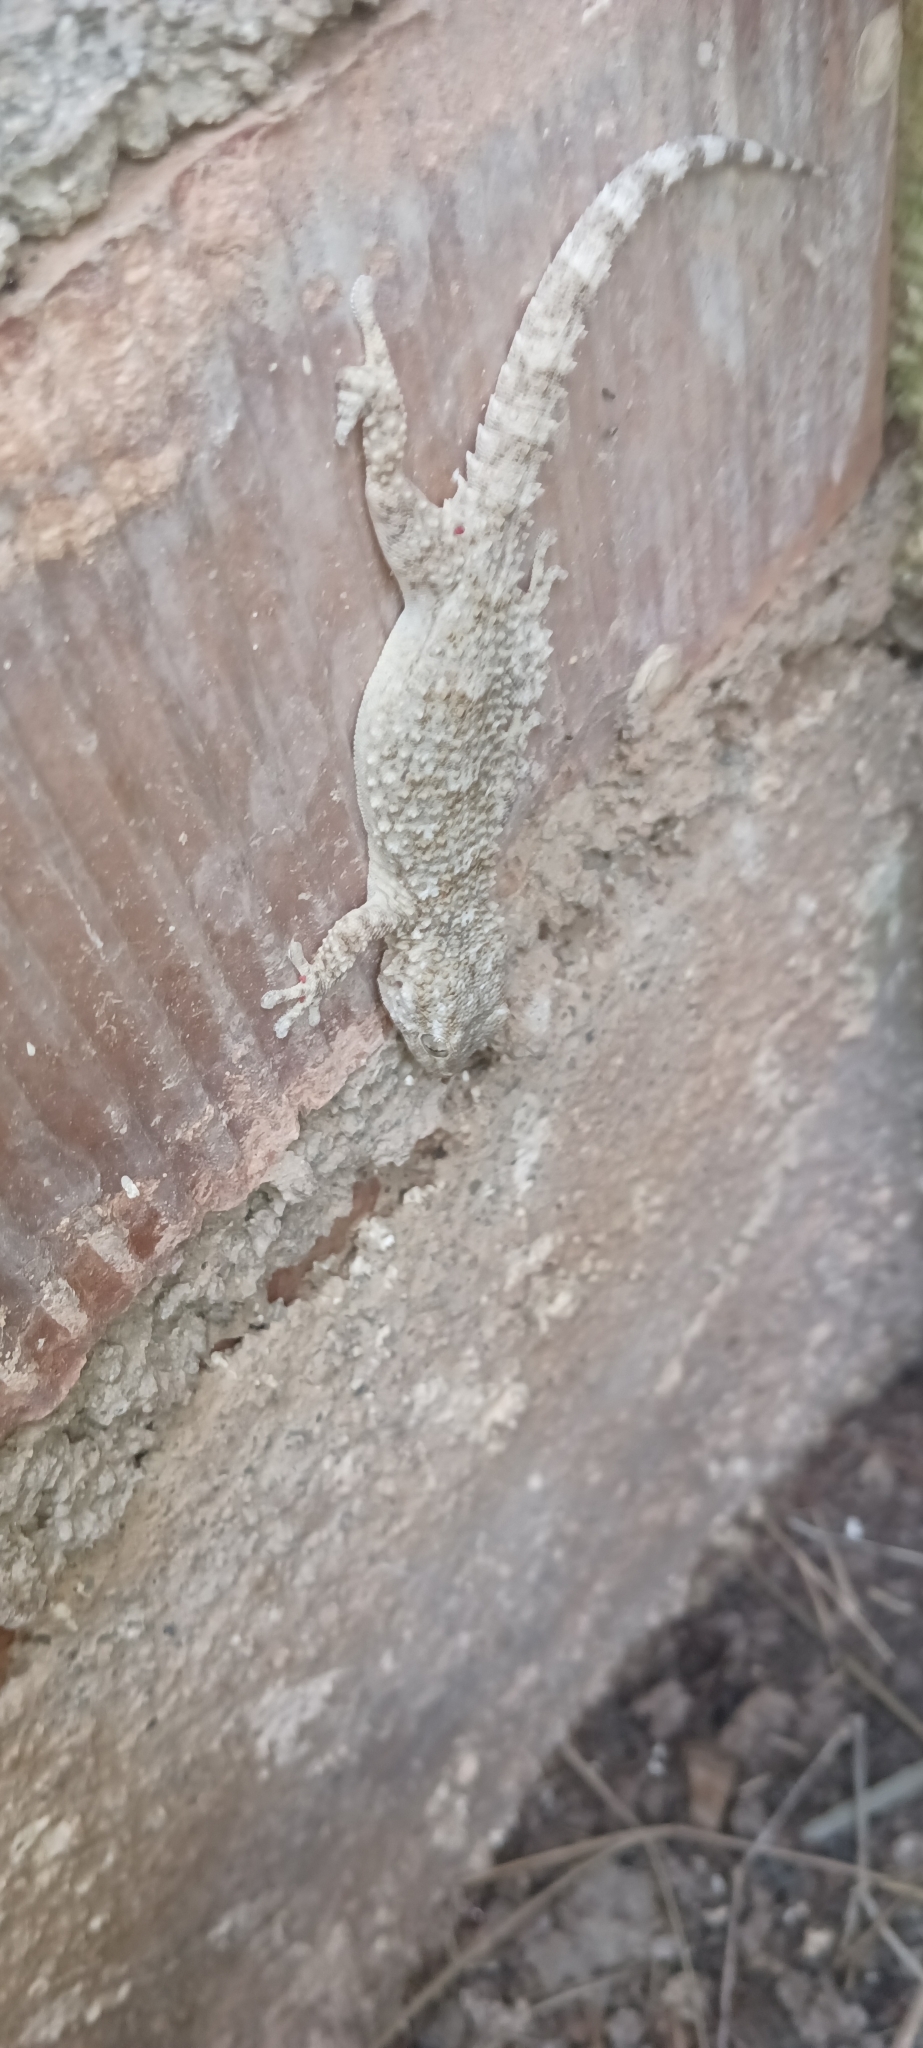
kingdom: Animalia
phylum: Chordata
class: Squamata
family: Phyllodactylidae
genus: Tarentola
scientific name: Tarentola mauritanica
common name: Moorish gecko
